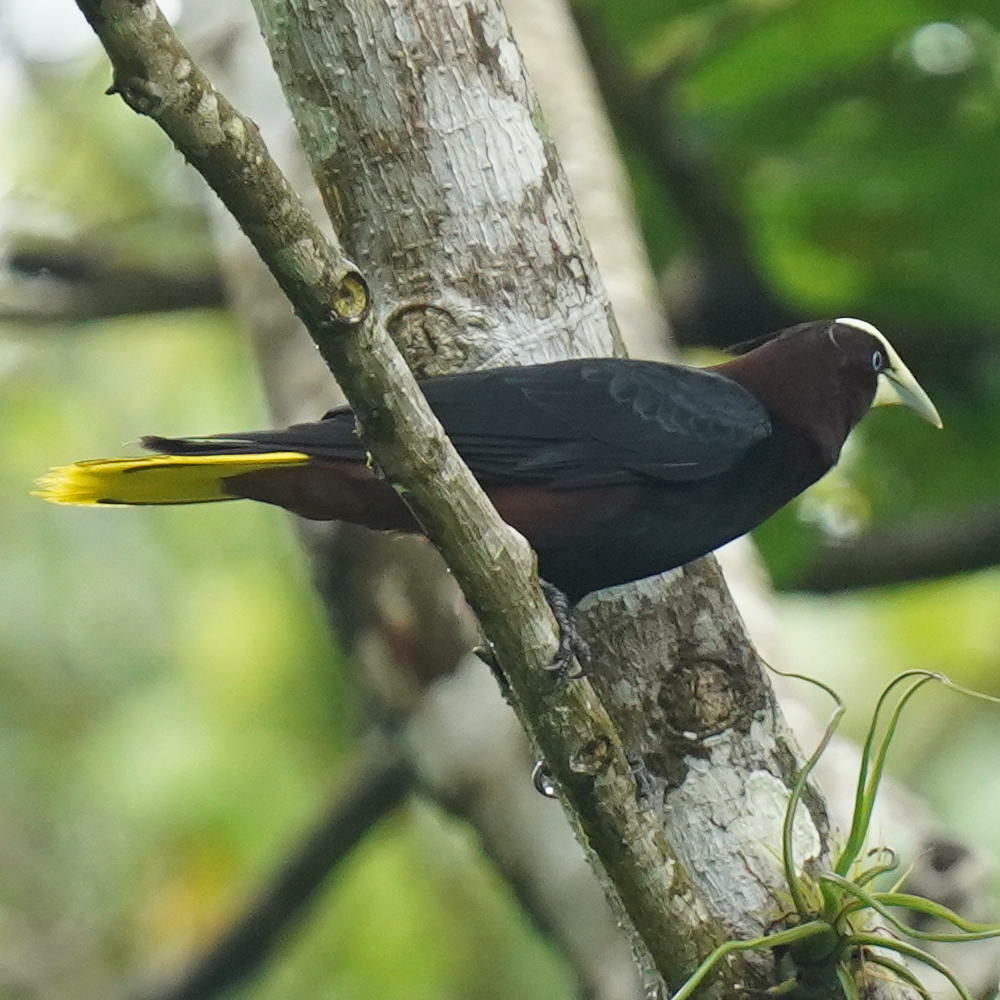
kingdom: Animalia
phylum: Chordata
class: Aves
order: Passeriformes
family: Icteridae
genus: Psarocolius
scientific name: Psarocolius wagleri
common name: Chestnut-headed oropendola
